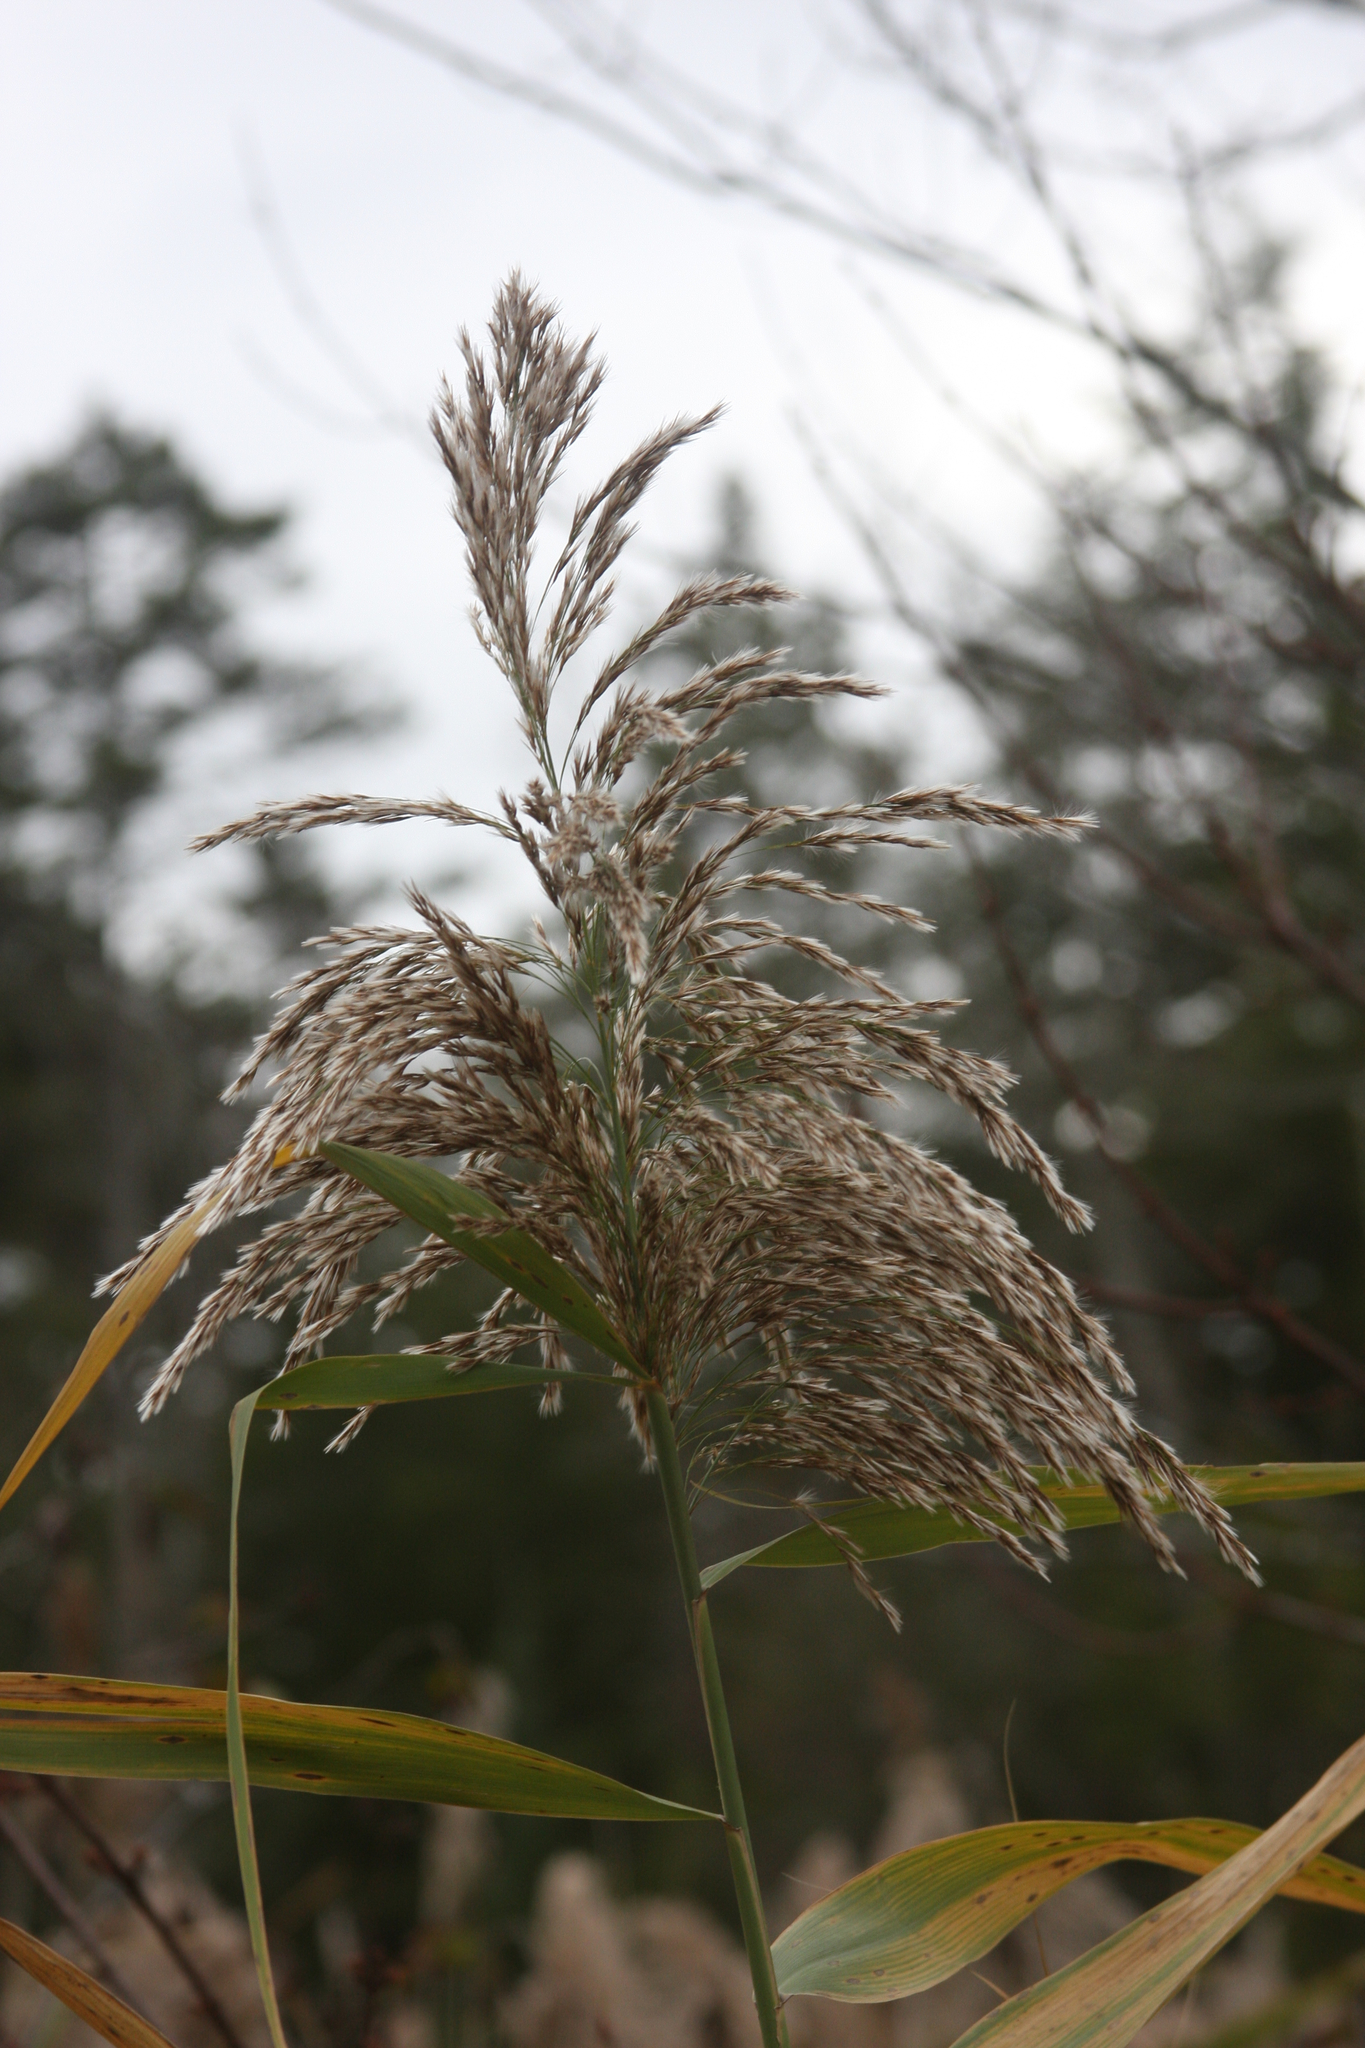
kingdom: Plantae
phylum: Tracheophyta
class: Liliopsida
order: Poales
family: Poaceae
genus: Phragmites
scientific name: Phragmites australis
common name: Common reed
